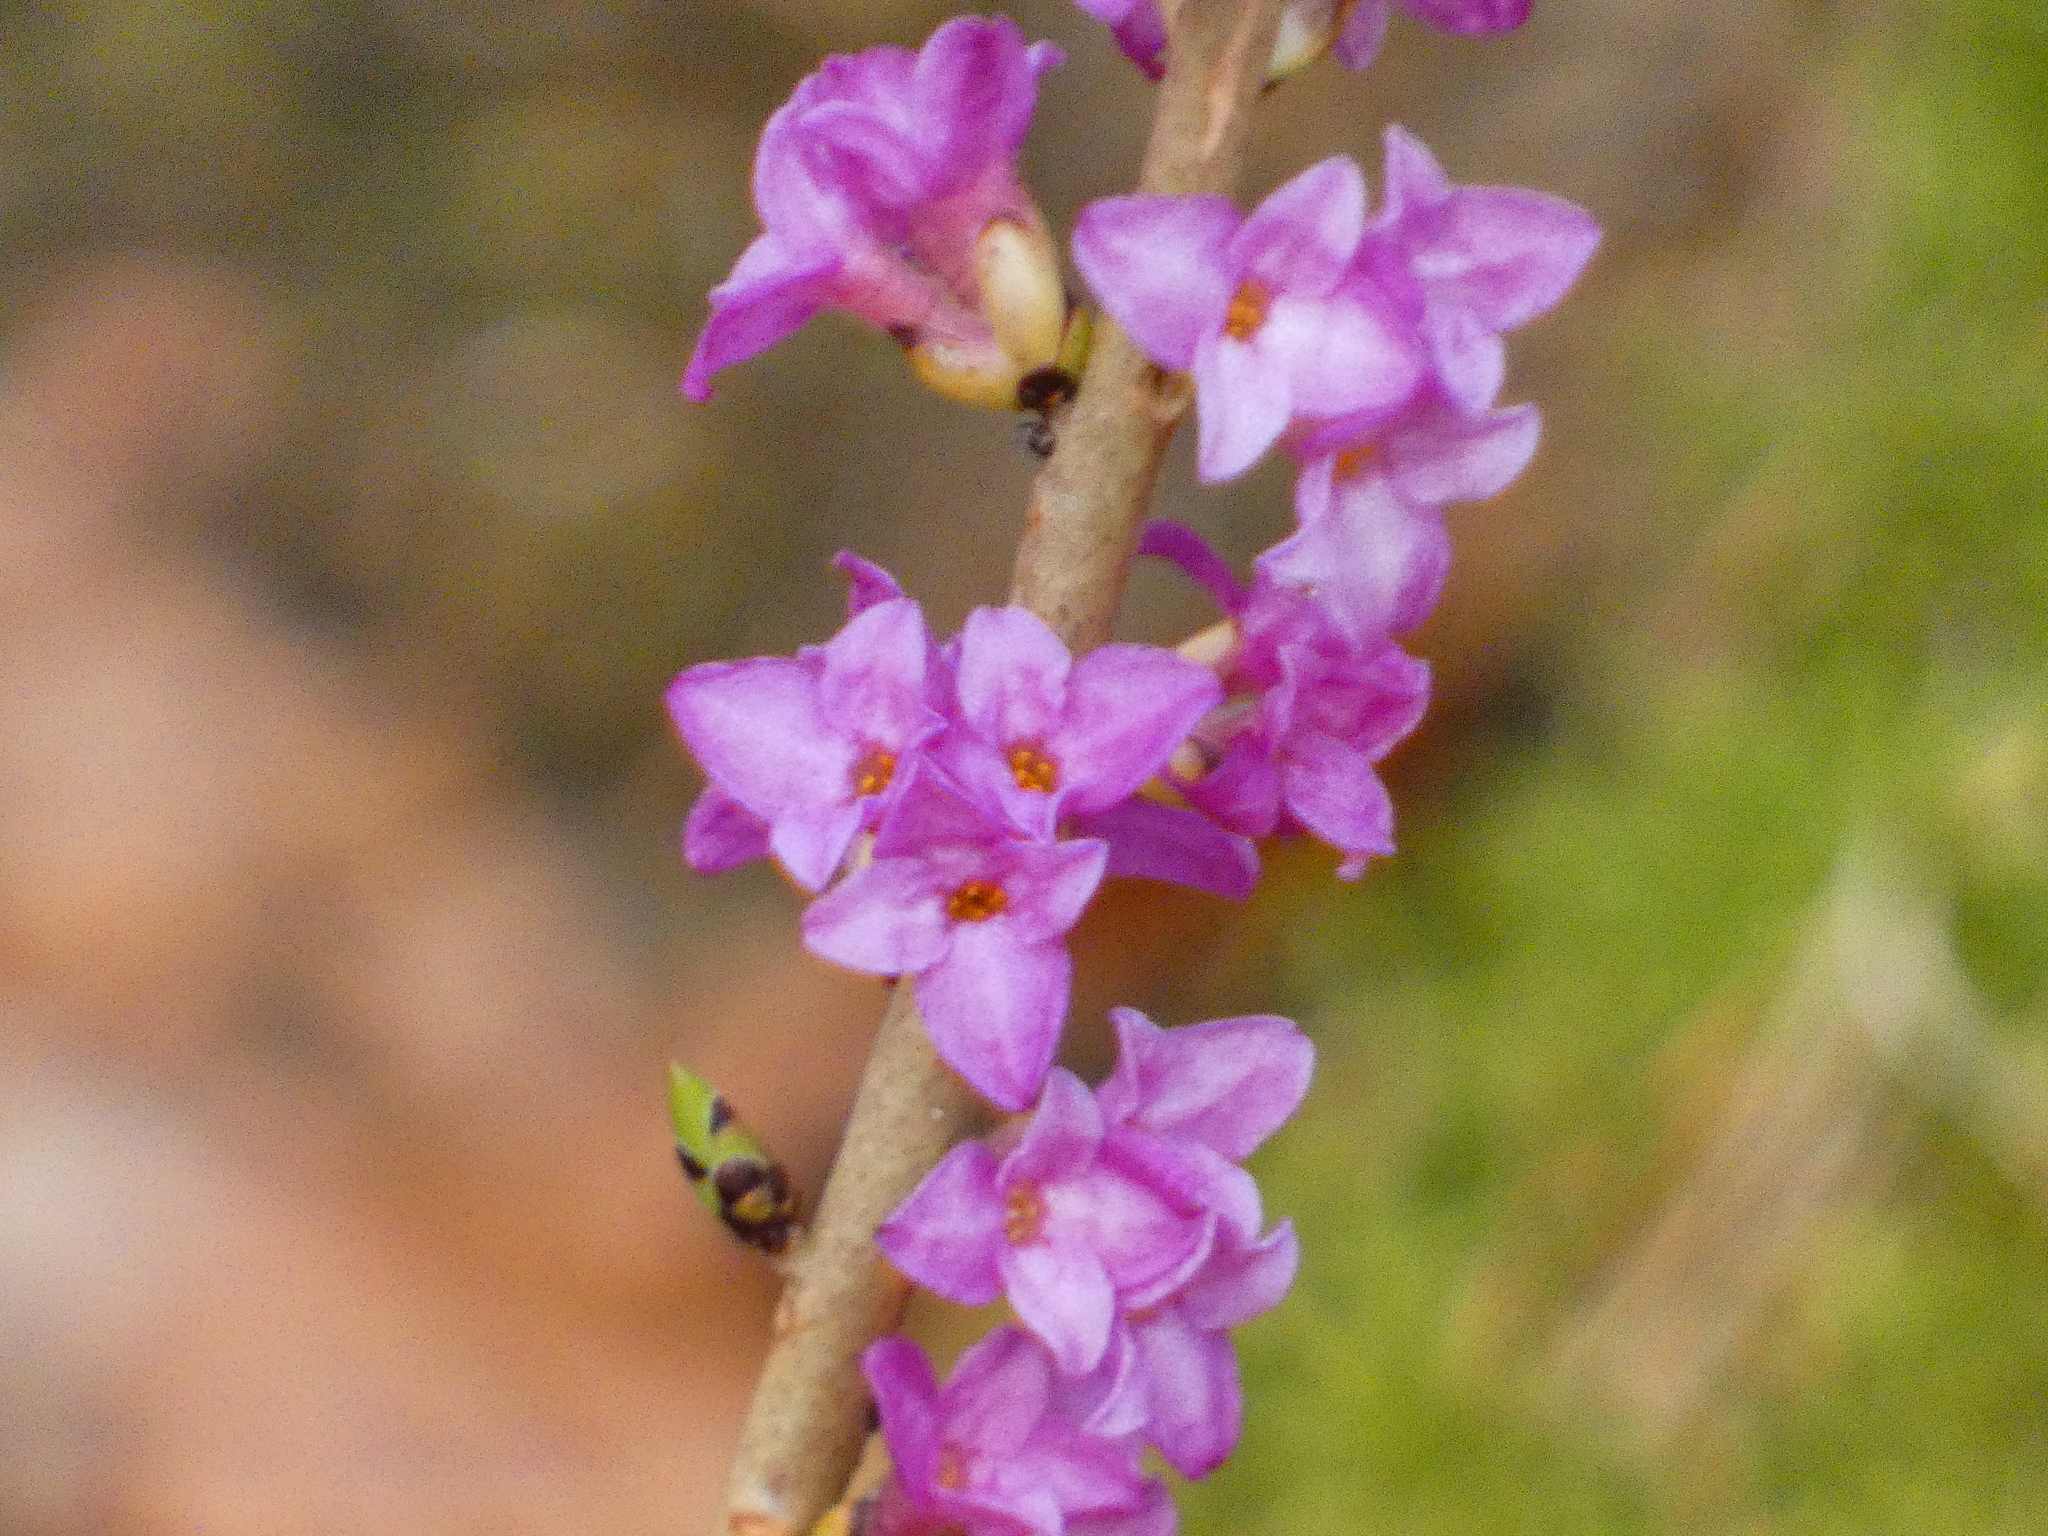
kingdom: Plantae
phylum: Tracheophyta
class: Magnoliopsida
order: Malvales
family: Thymelaeaceae
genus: Daphne
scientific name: Daphne mezereum
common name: Mezereon
